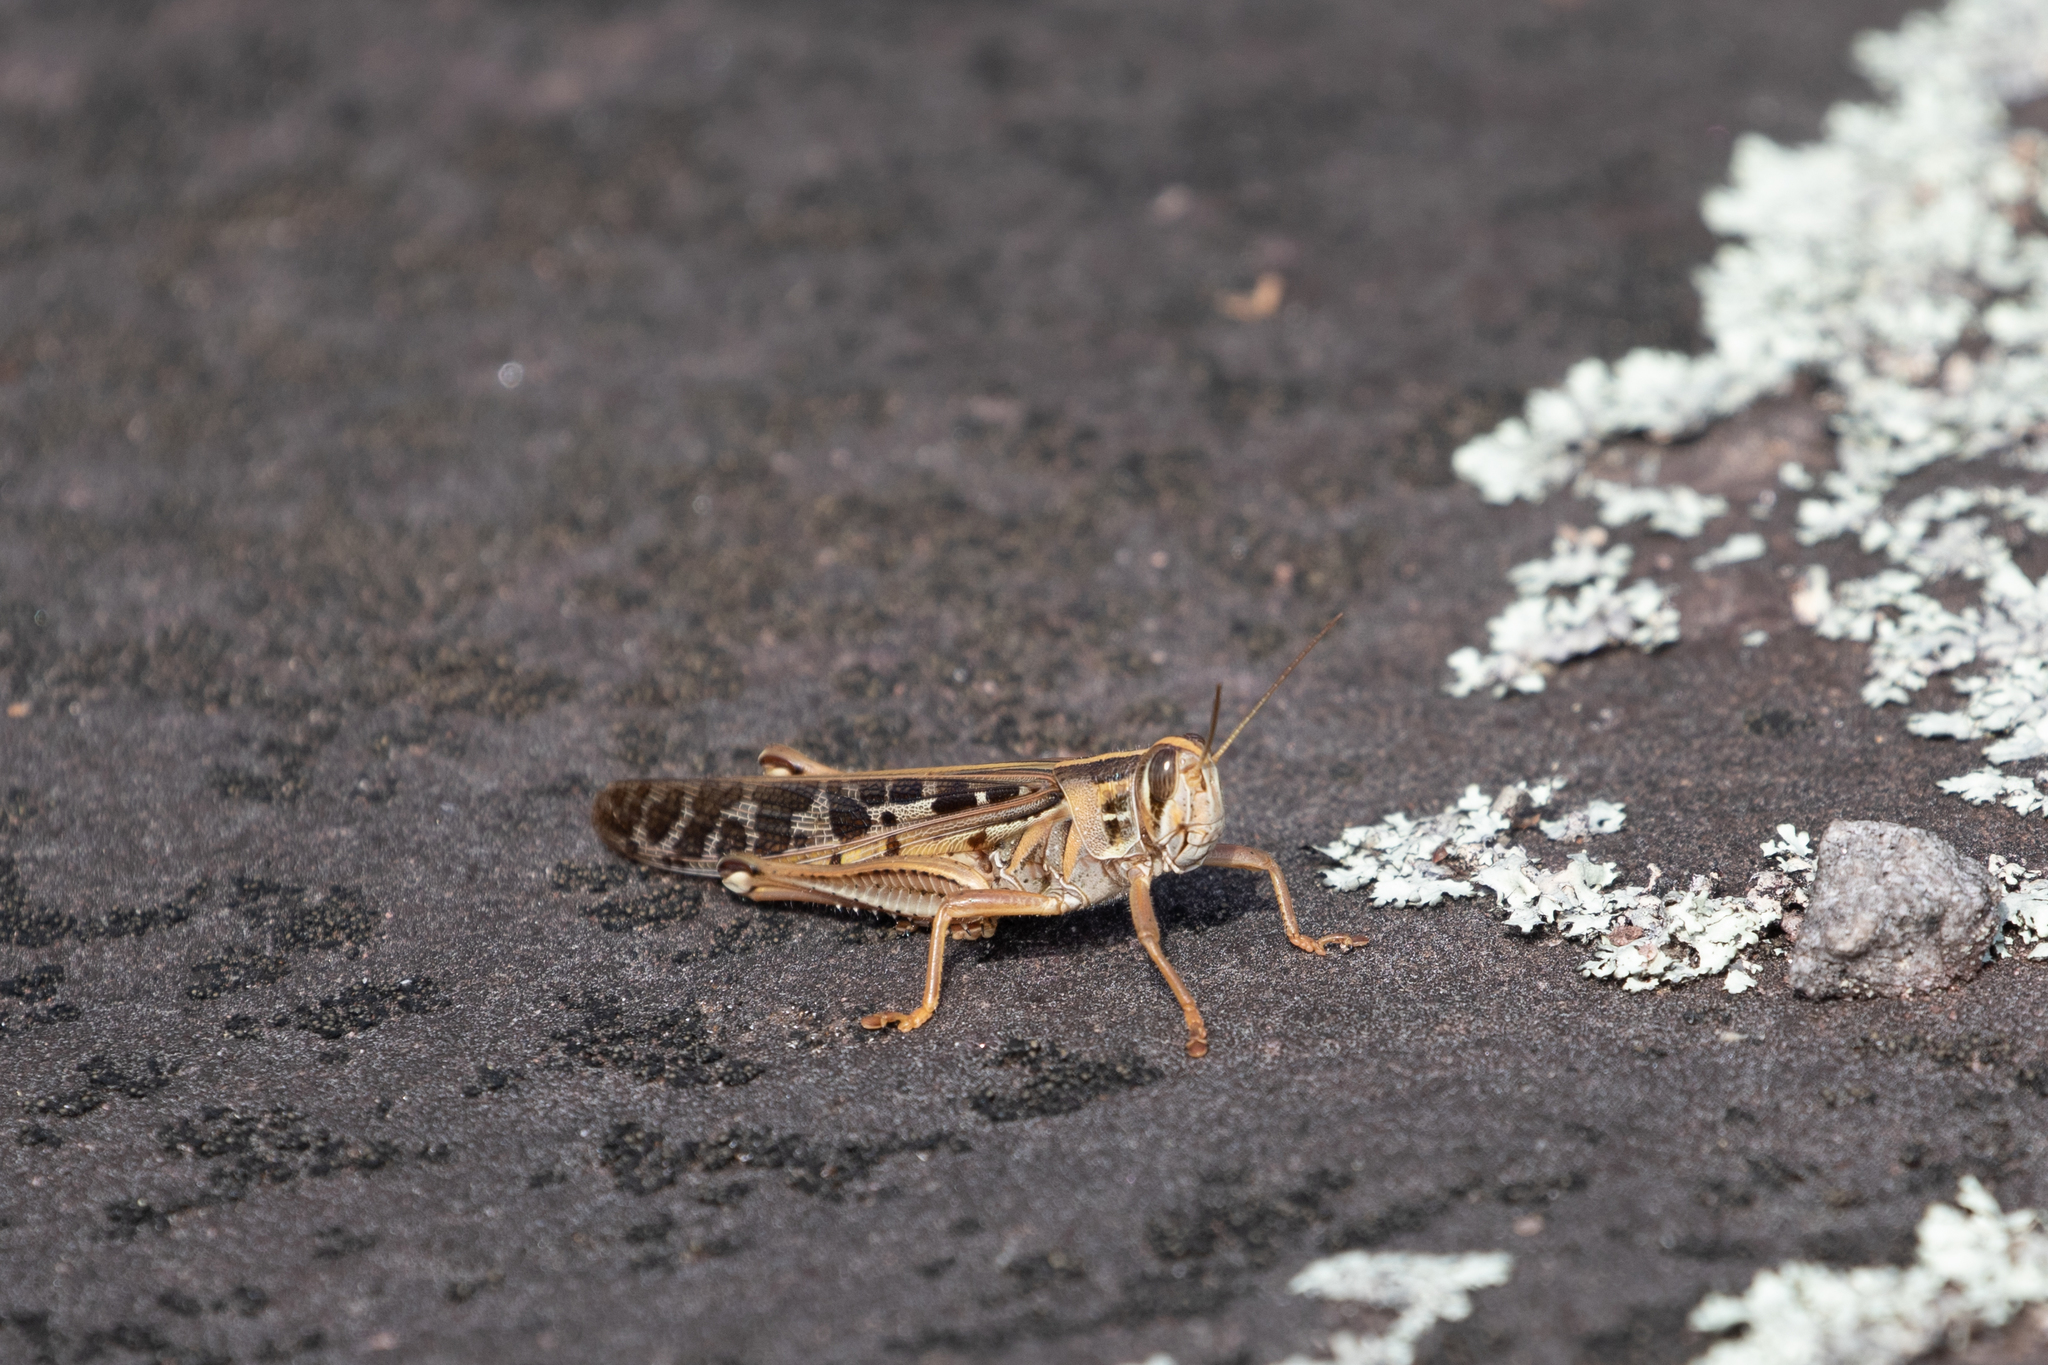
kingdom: Animalia
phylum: Arthropoda
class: Insecta
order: Orthoptera
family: Acrididae
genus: Schistocerca
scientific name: Schistocerca americana
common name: American bird locust
